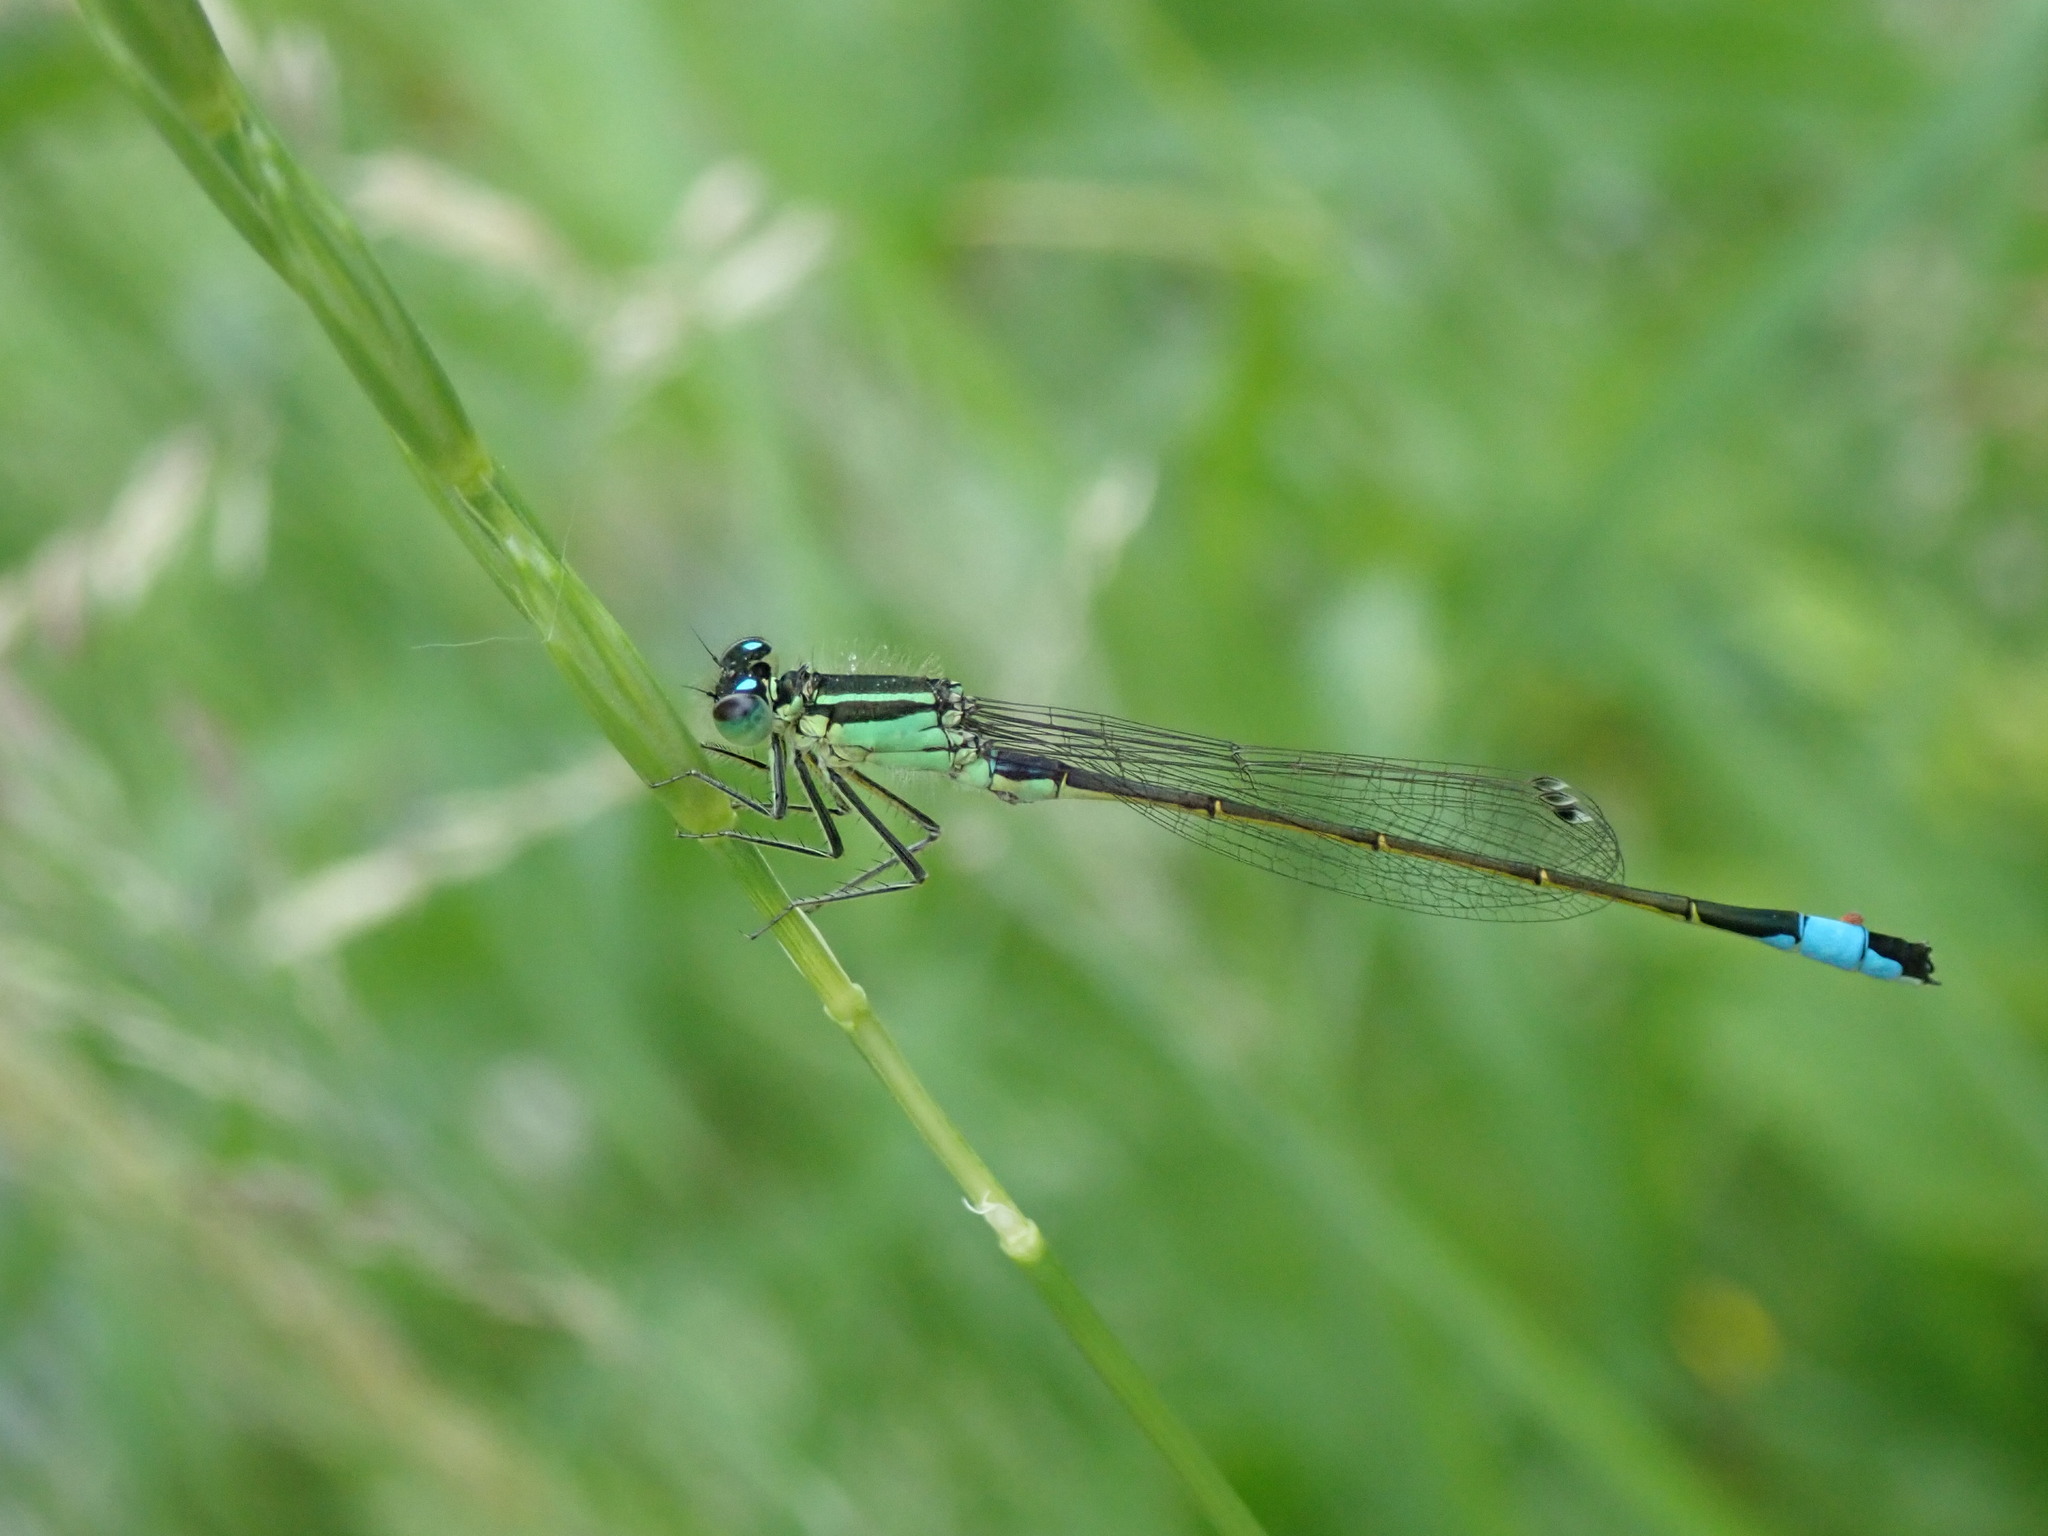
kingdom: Animalia
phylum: Arthropoda
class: Insecta
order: Odonata
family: Coenagrionidae
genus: Ischnura
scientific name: Ischnura elegans
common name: Blue-tailed damselfly
